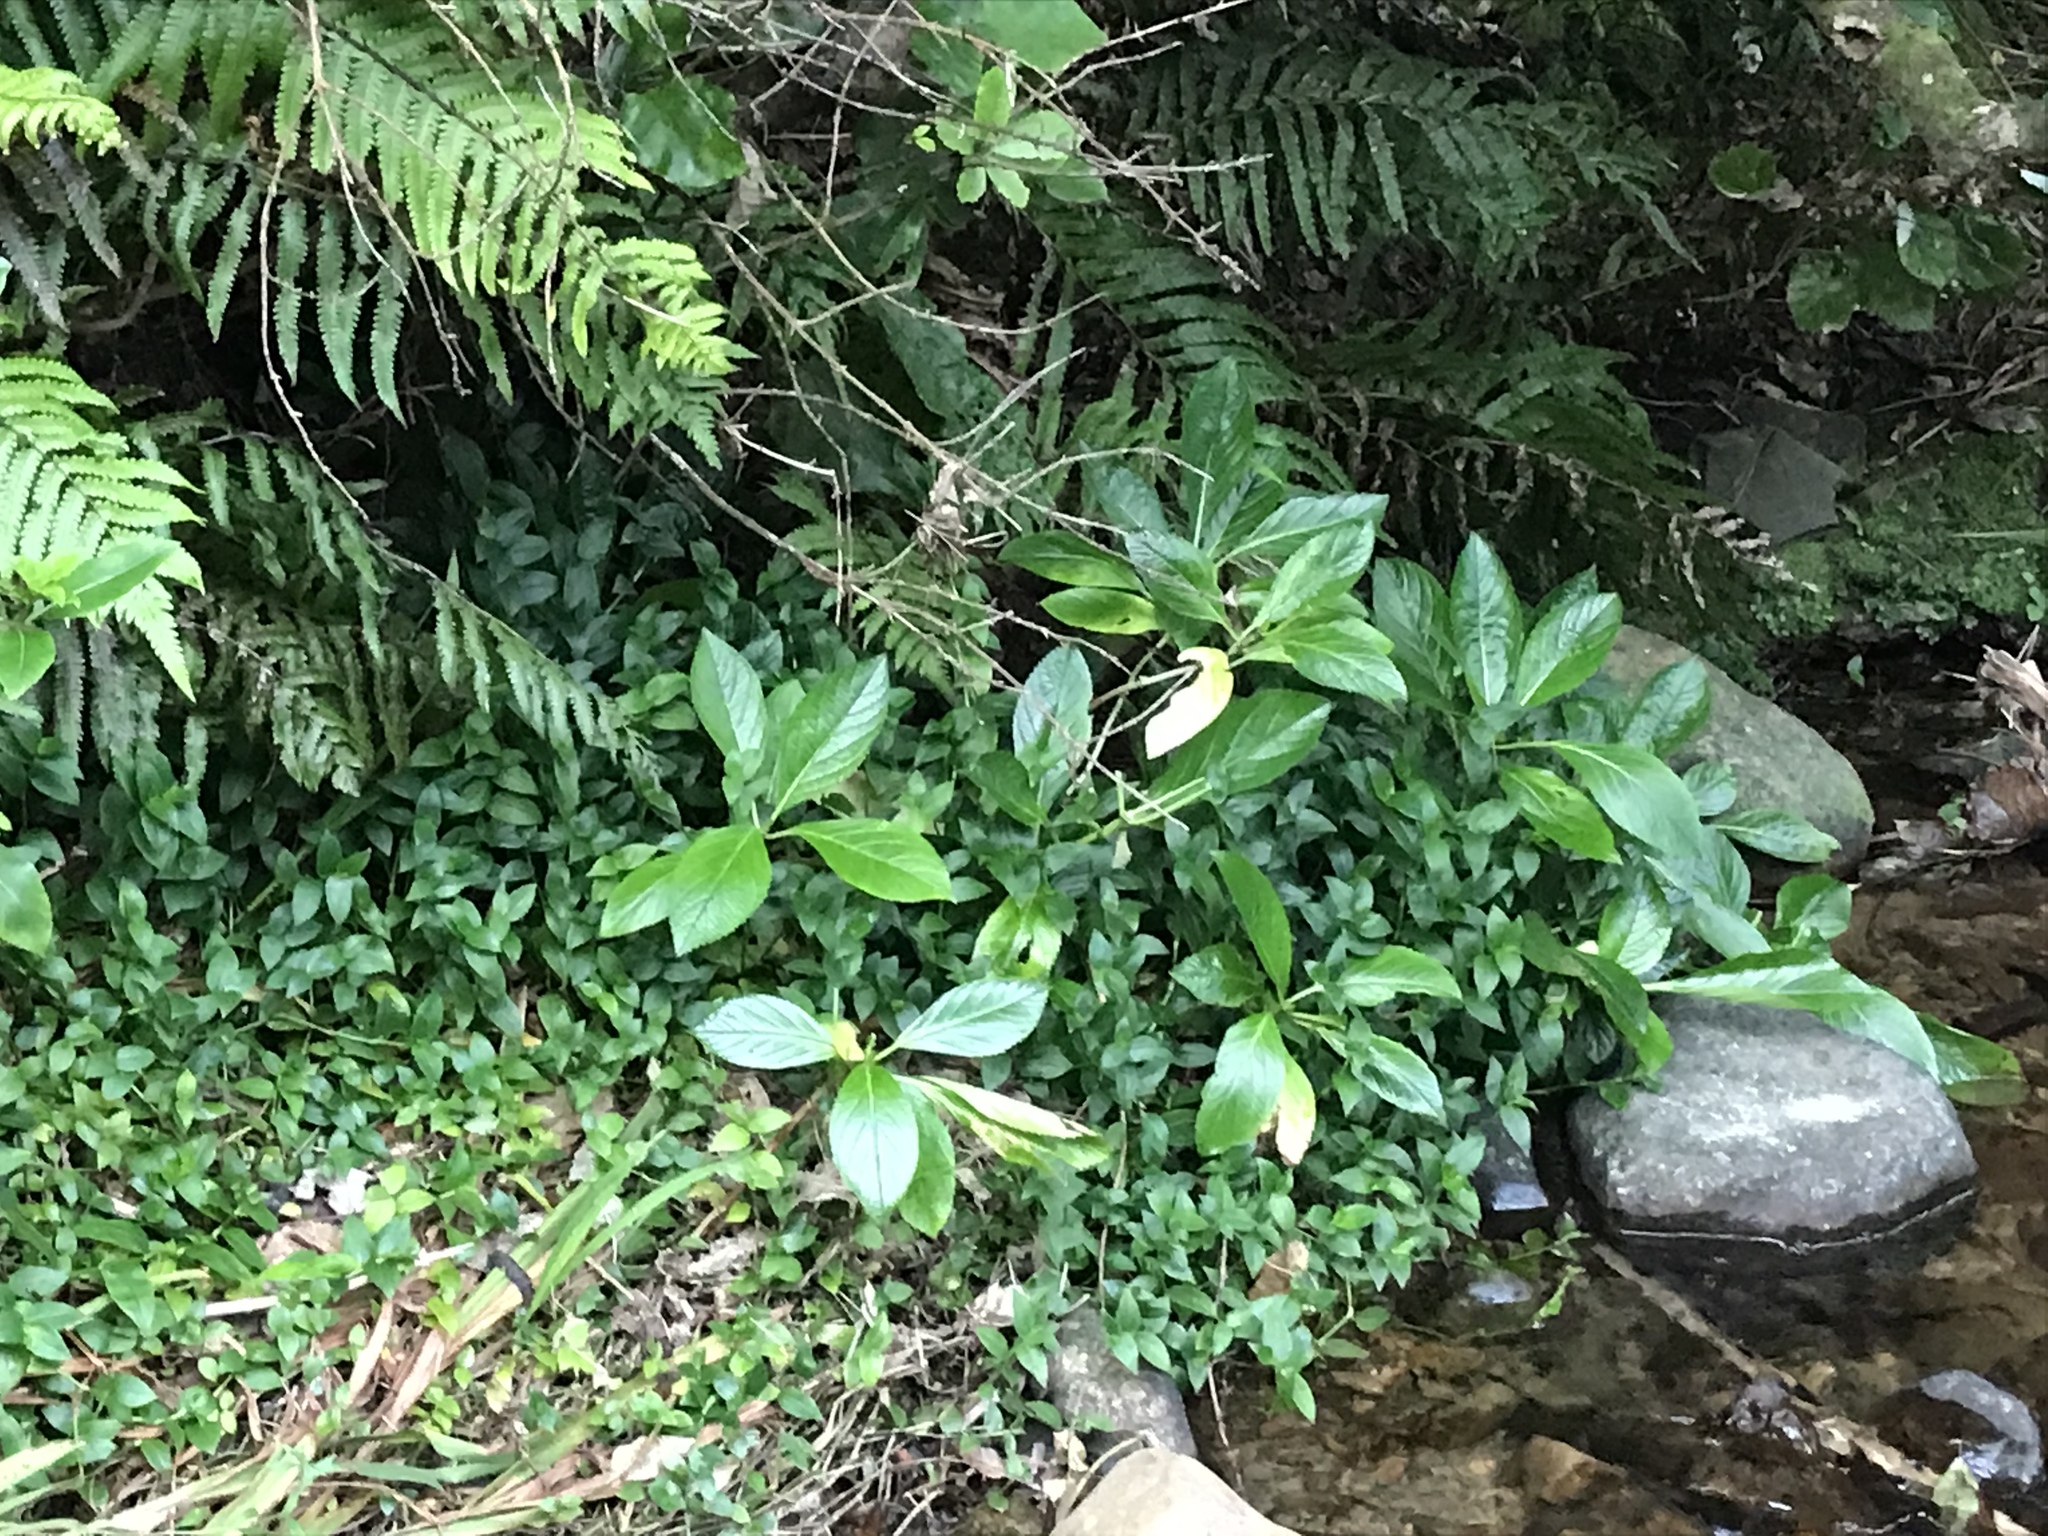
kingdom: Plantae
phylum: Tracheophyta
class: Magnoliopsida
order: Cornales
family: Hydrangeaceae
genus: Hydrangea
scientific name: Hydrangea macrophylla
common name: Hydrangea
